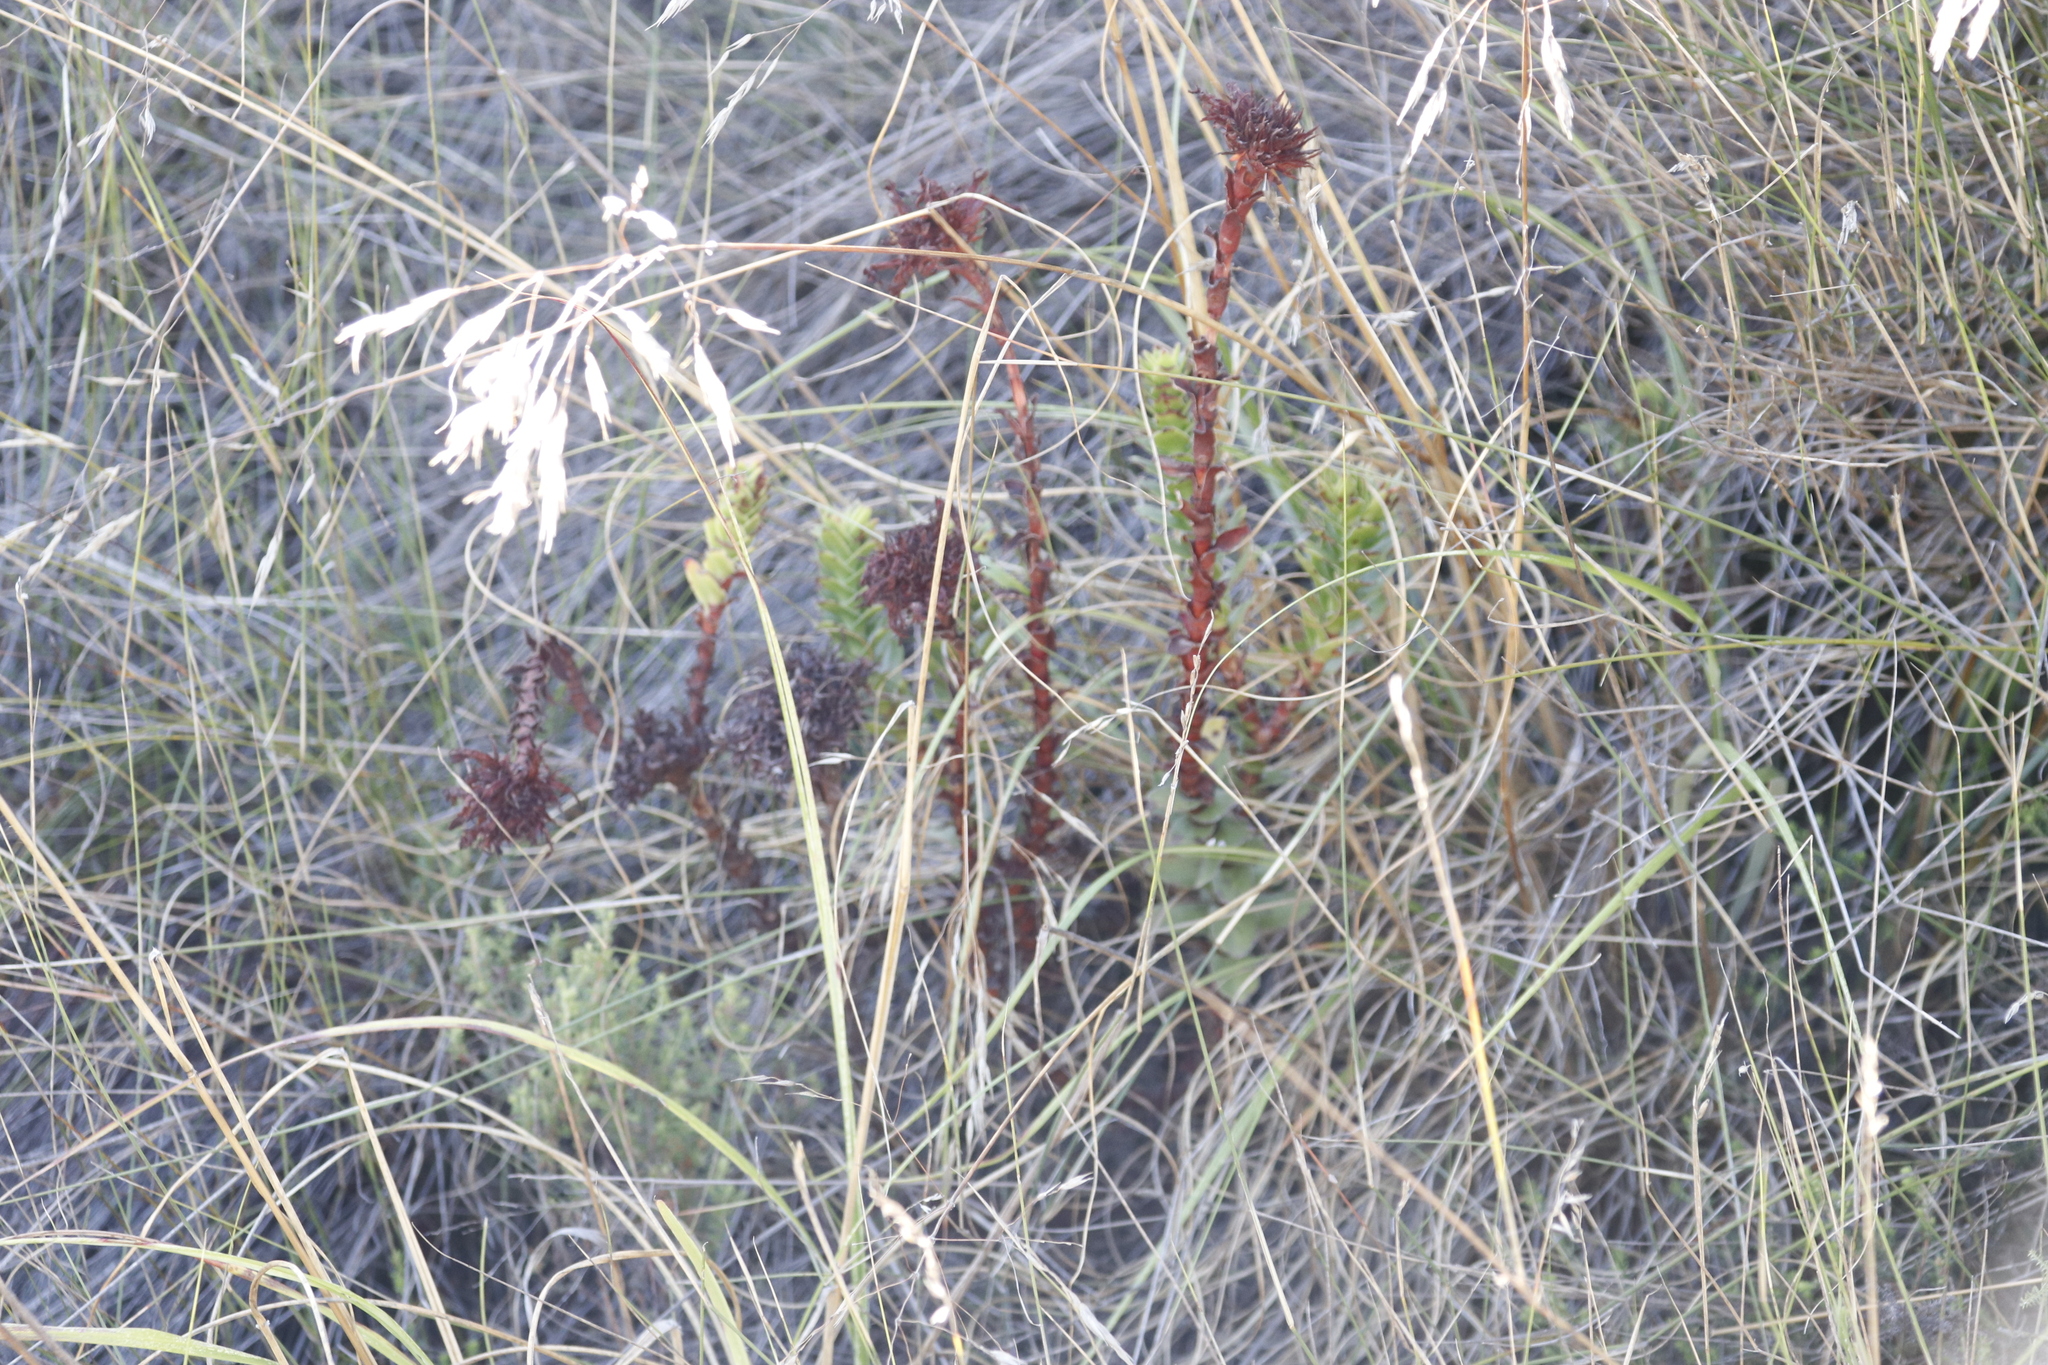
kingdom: Plantae
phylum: Tracheophyta
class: Magnoliopsida
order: Saxifragales
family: Crassulaceae
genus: Crassula
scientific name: Crassula coccinea
